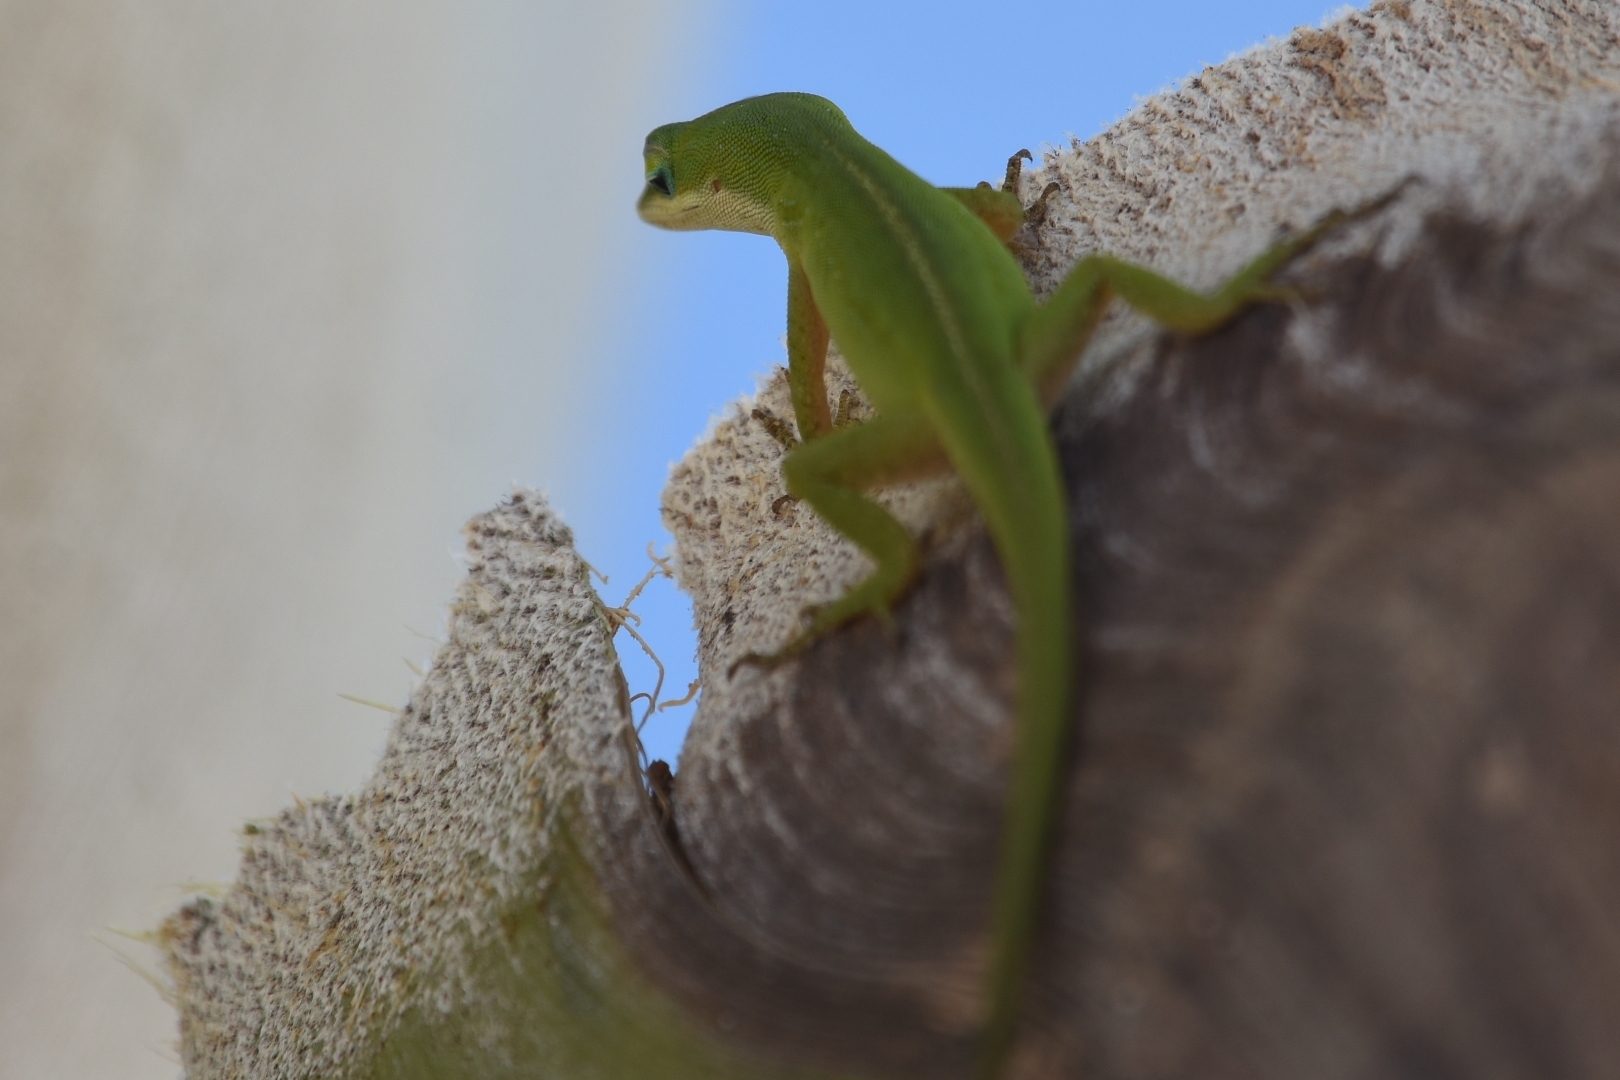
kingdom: Animalia
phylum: Chordata
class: Squamata
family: Dactyloidae
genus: Anolis
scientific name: Anolis carolinensis
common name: Green anole
